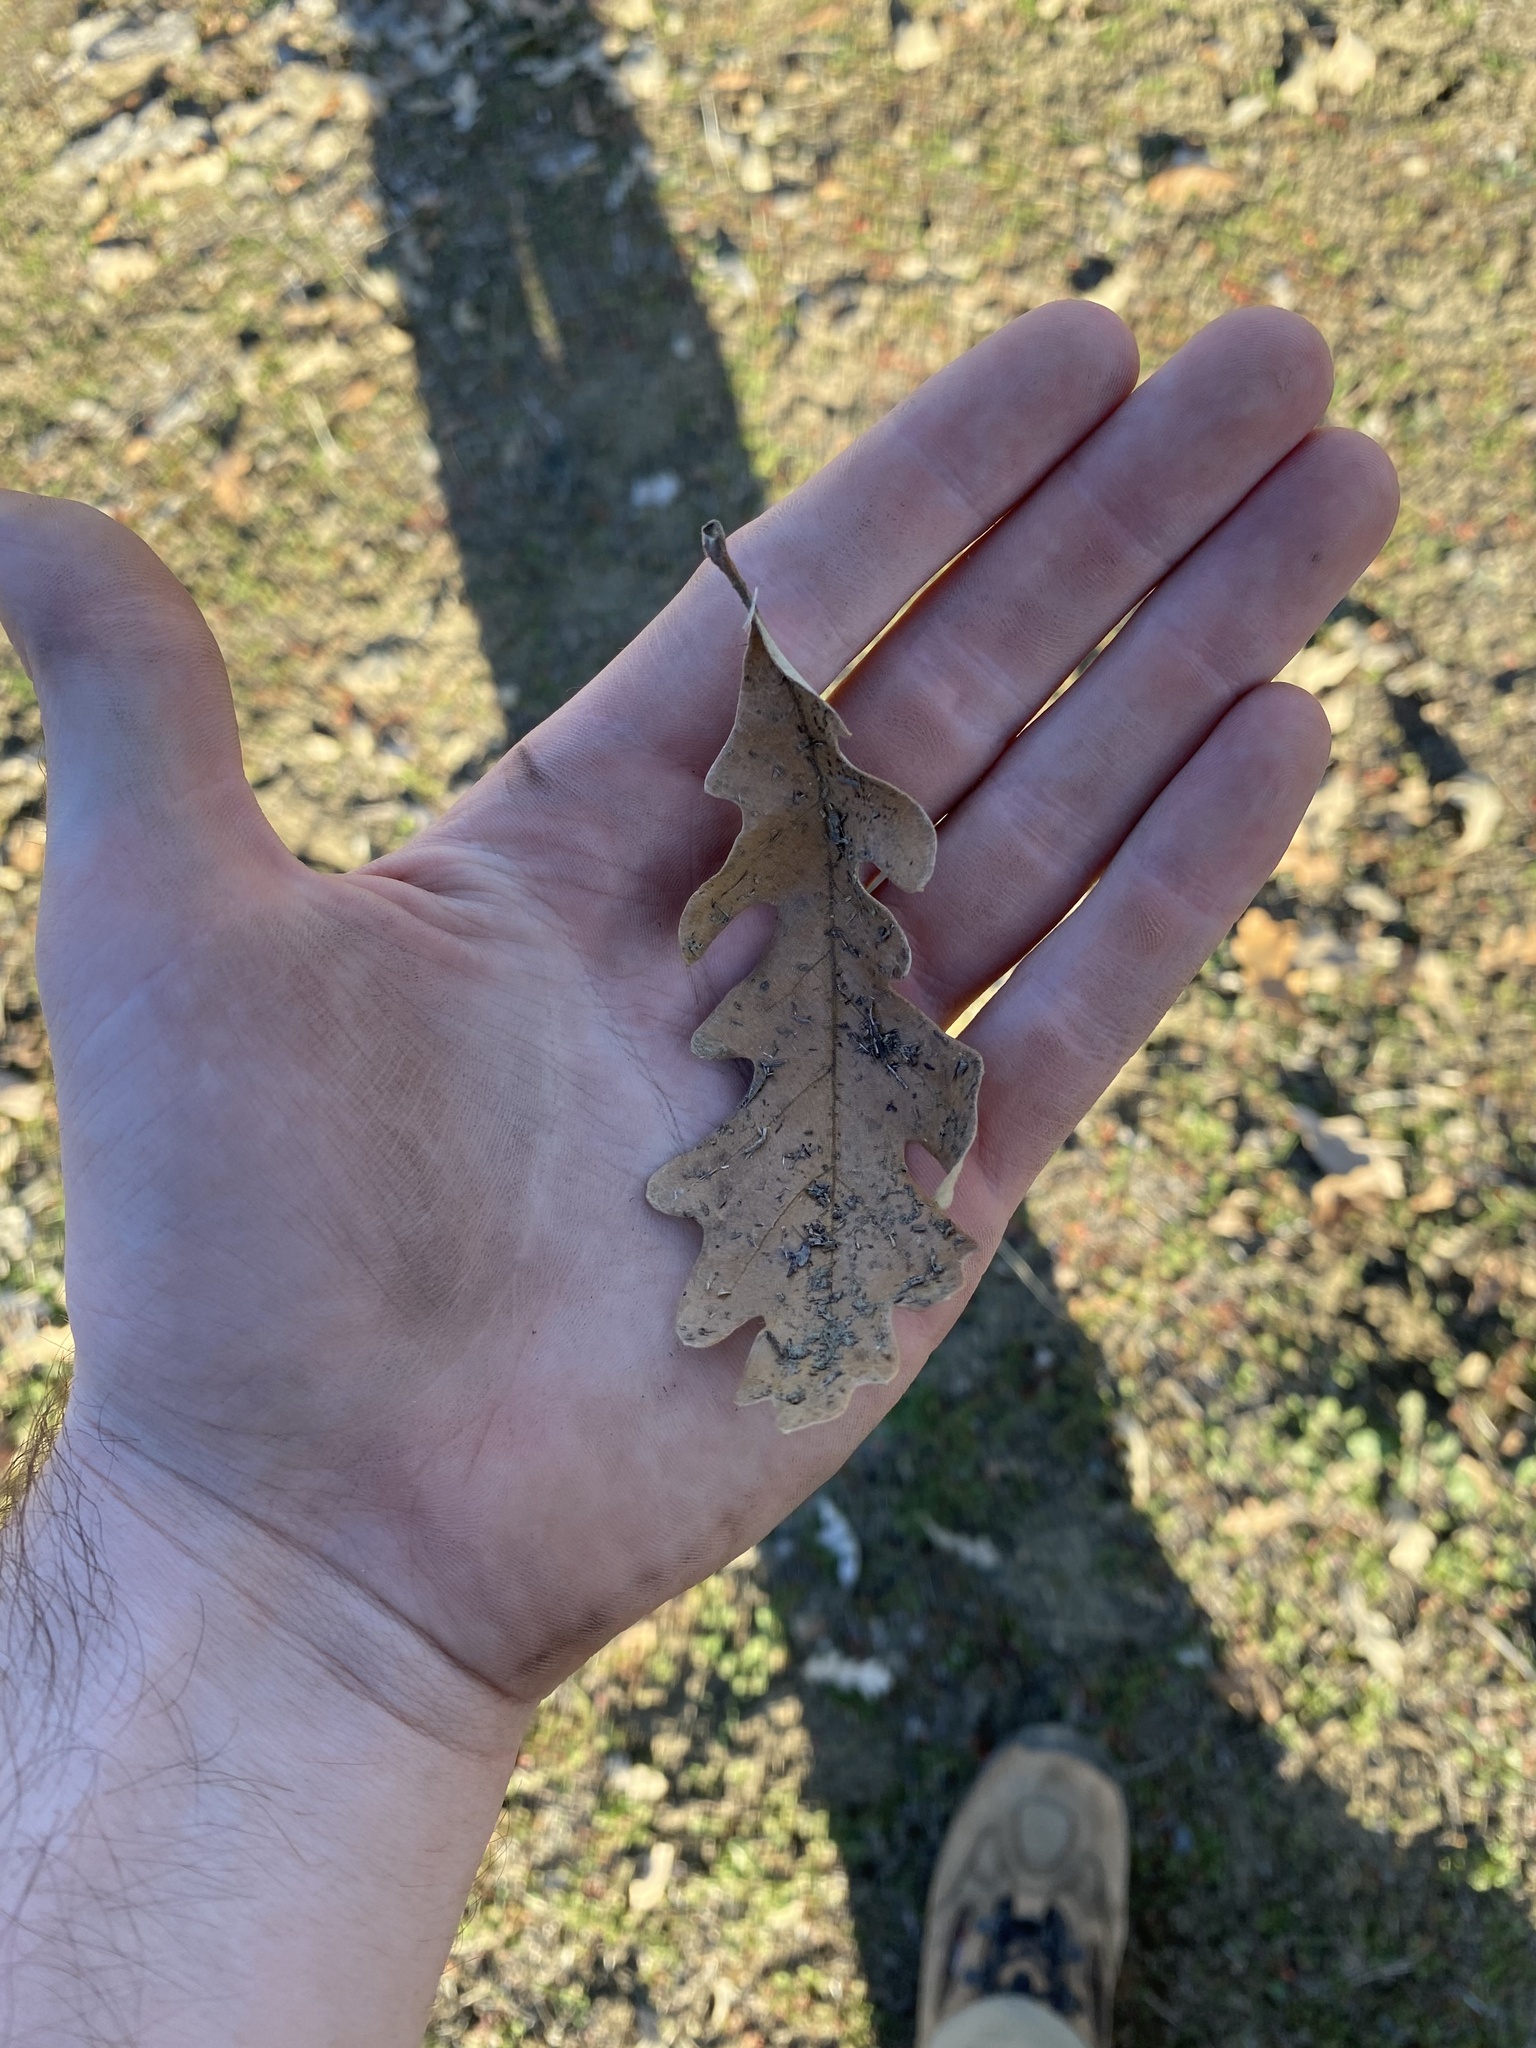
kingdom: Plantae
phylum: Tracheophyta
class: Magnoliopsida
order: Fagales
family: Fagaceae
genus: Quercus
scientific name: Quercus lobata
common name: Valley oak
